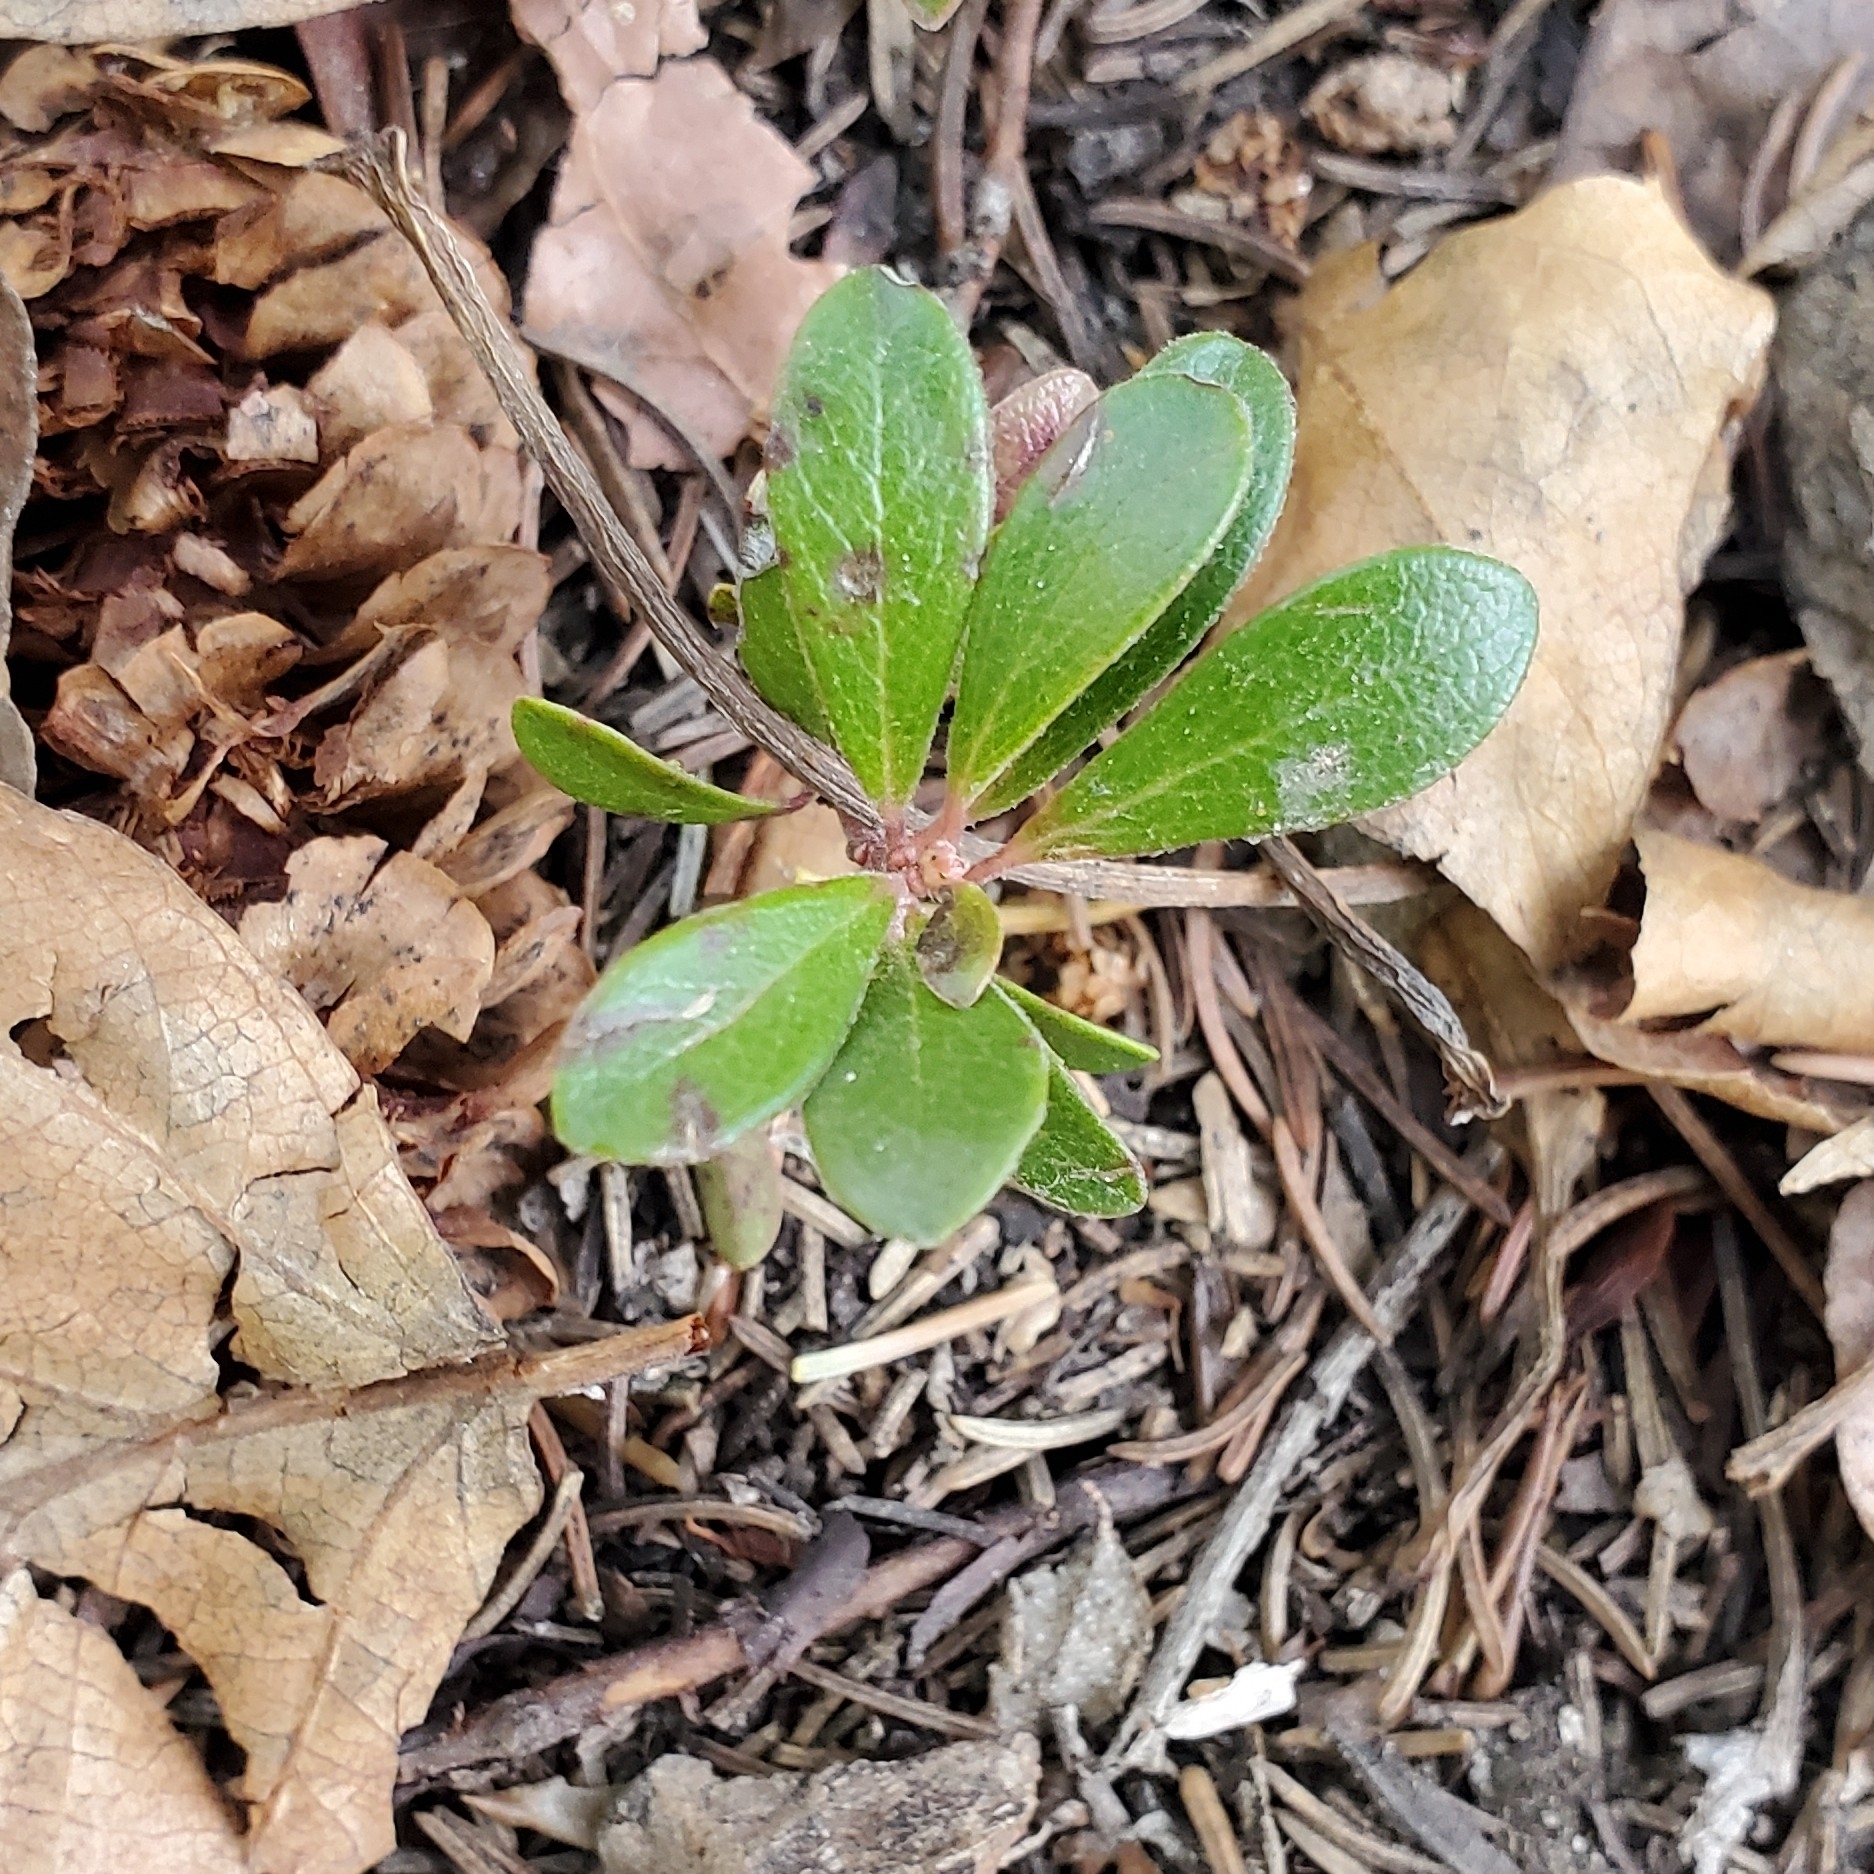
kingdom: Plantae
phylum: Tracheophyta
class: Magnoliopsida
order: Ericales
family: Ericaceae
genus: Arctostaphylos
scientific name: Arctostaphylos uva-ursi
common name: Bearberry
